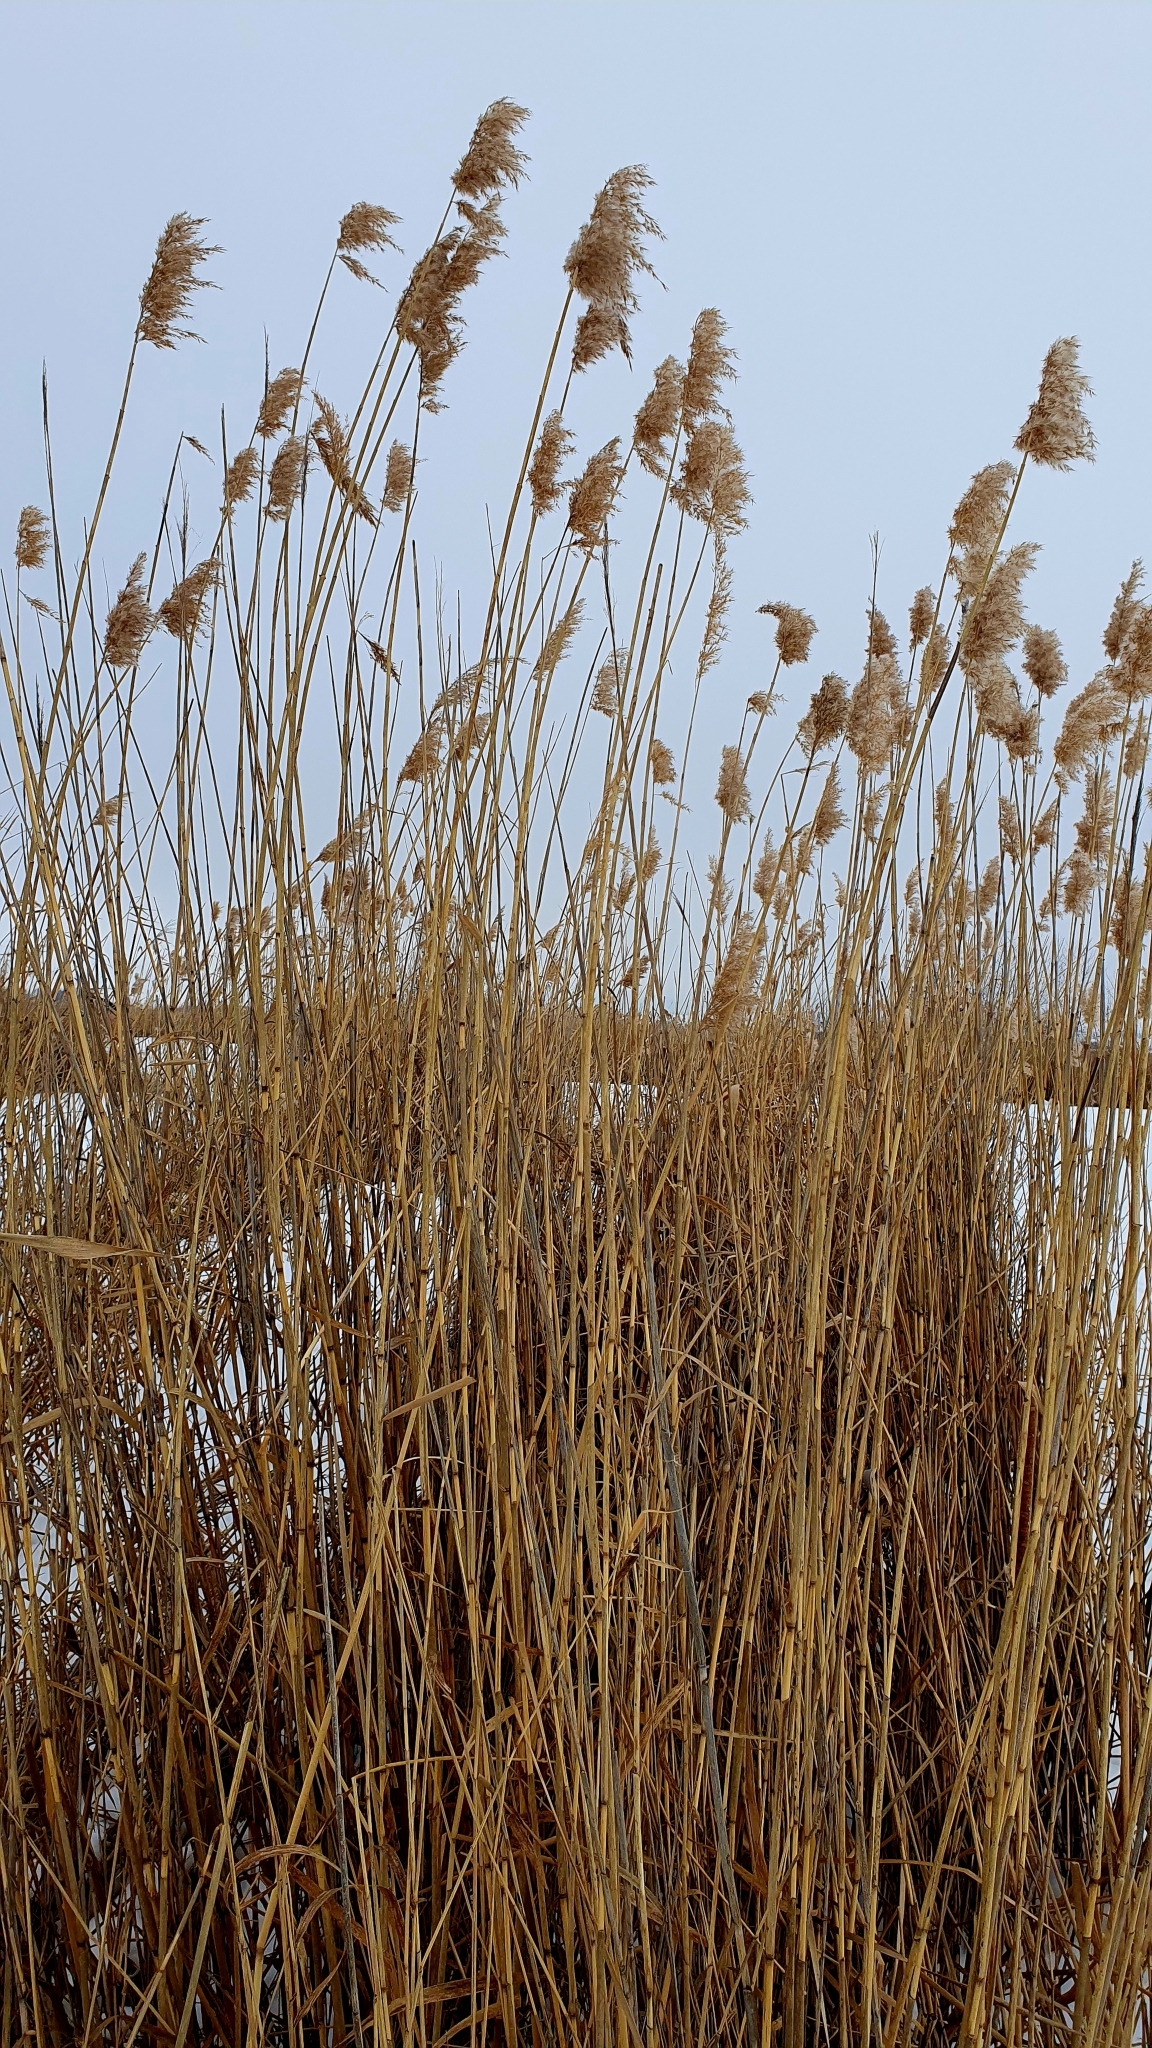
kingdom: Plantae
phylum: Tracheophyta
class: Liliopsida
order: Poales
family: Poaceae
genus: Phragmites
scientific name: Phragmites australis
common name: Common reed
